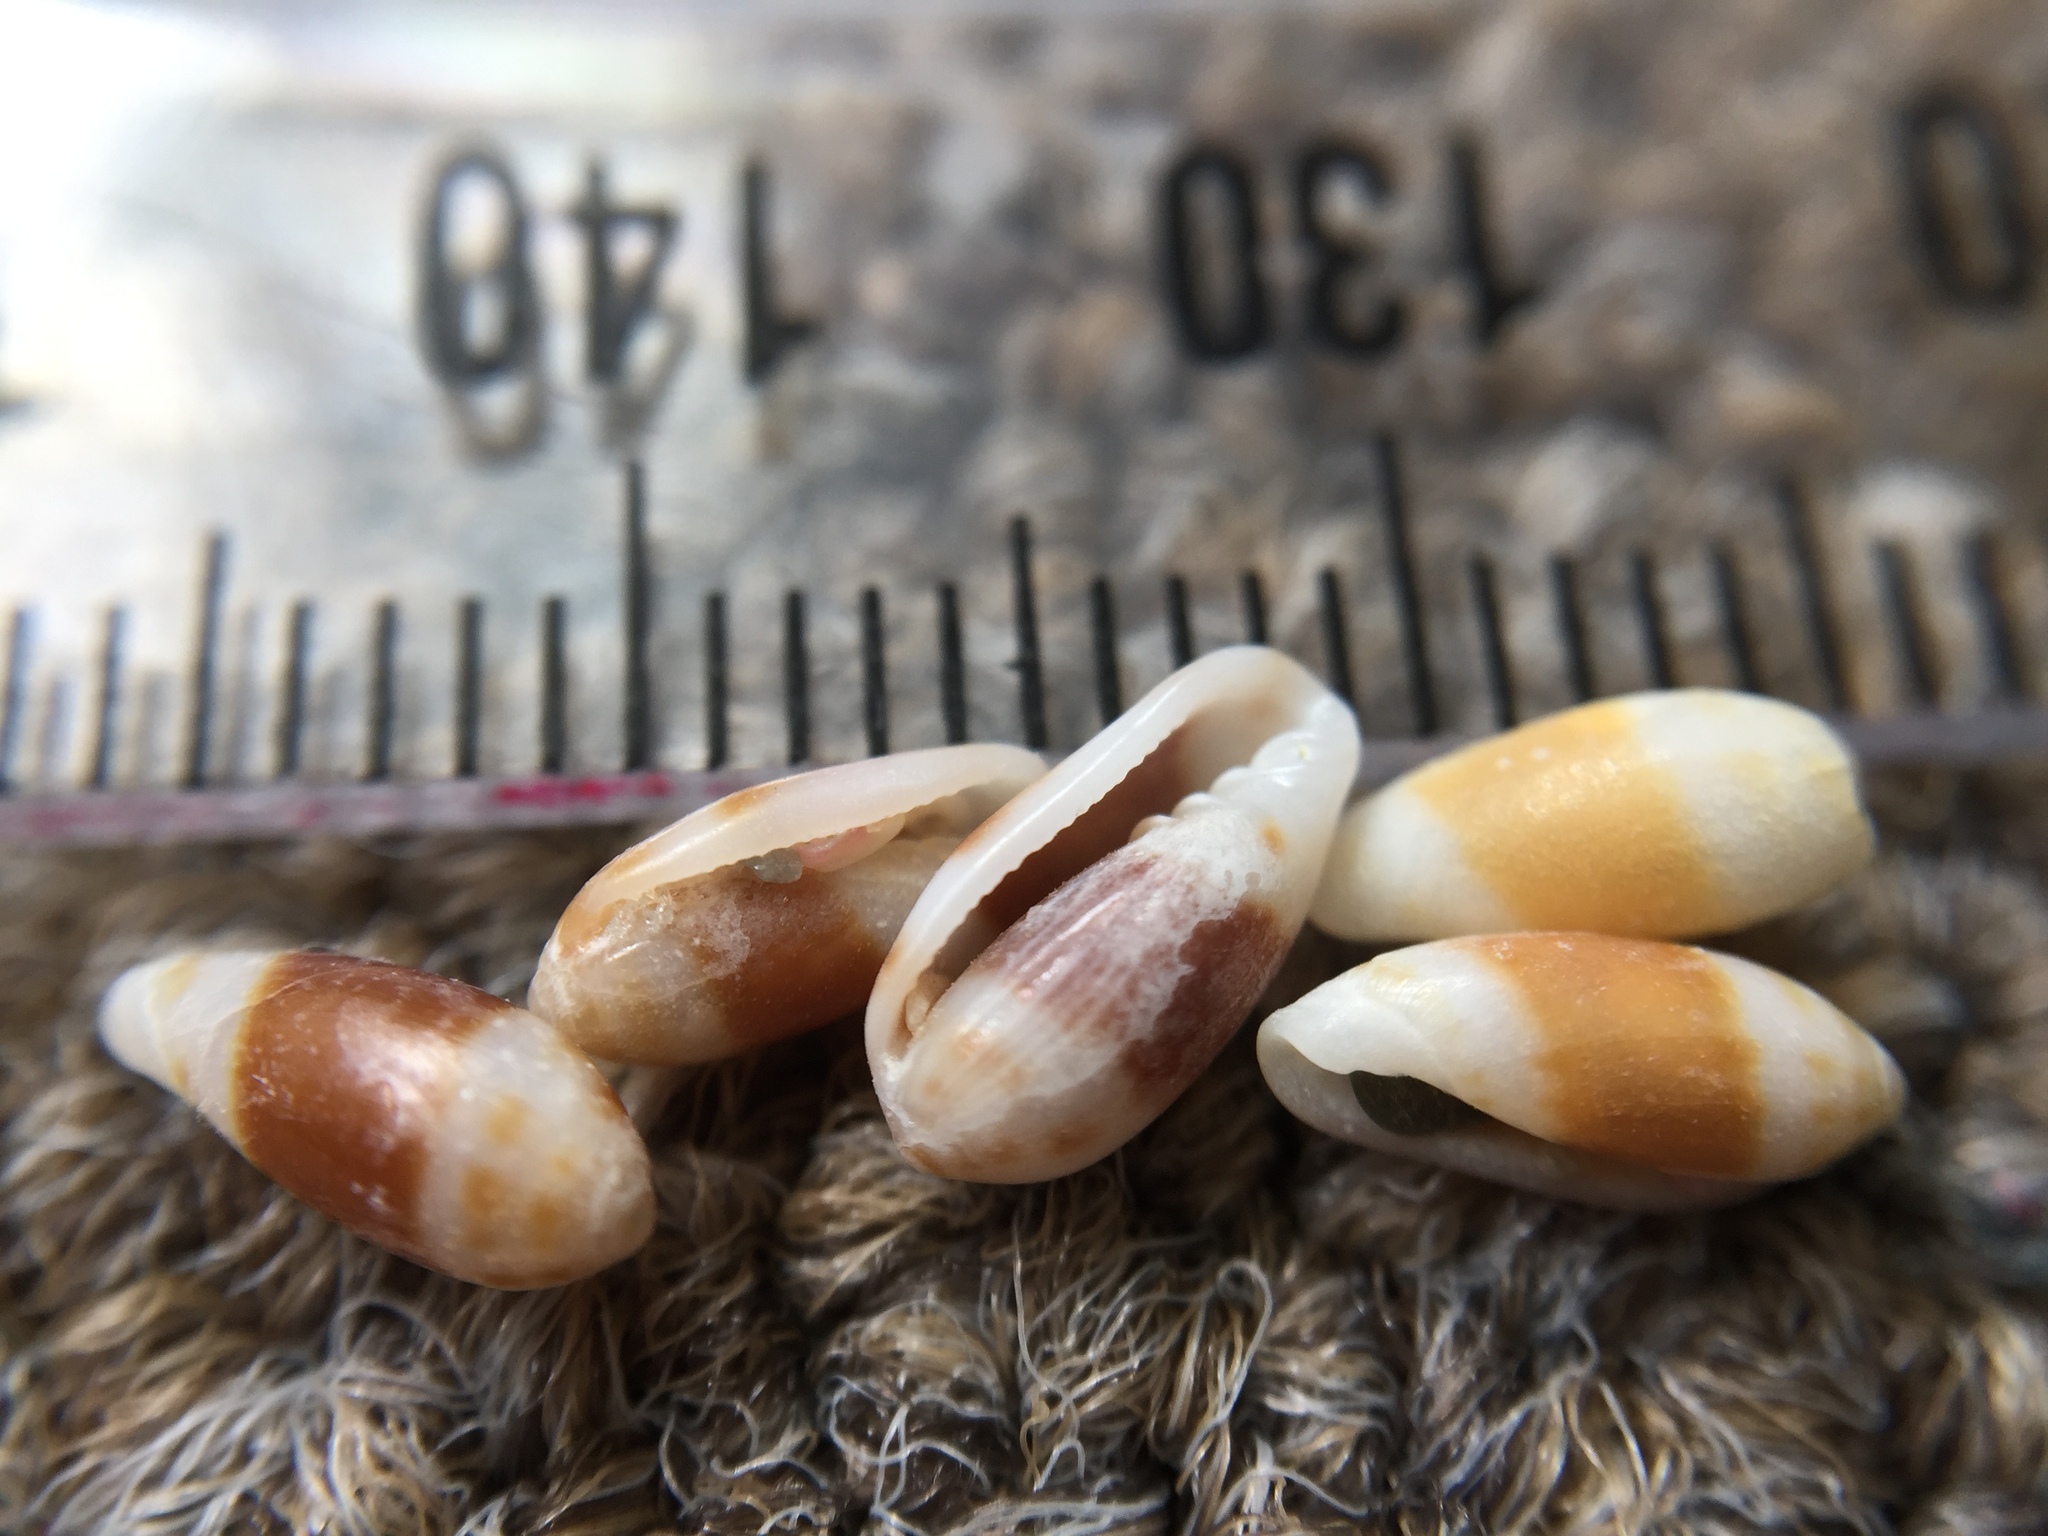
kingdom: Animalia
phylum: Mollusca
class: Gastropoda
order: Neogastropoda
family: Marginellidae
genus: Serrata
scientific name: Serrata fasciata
